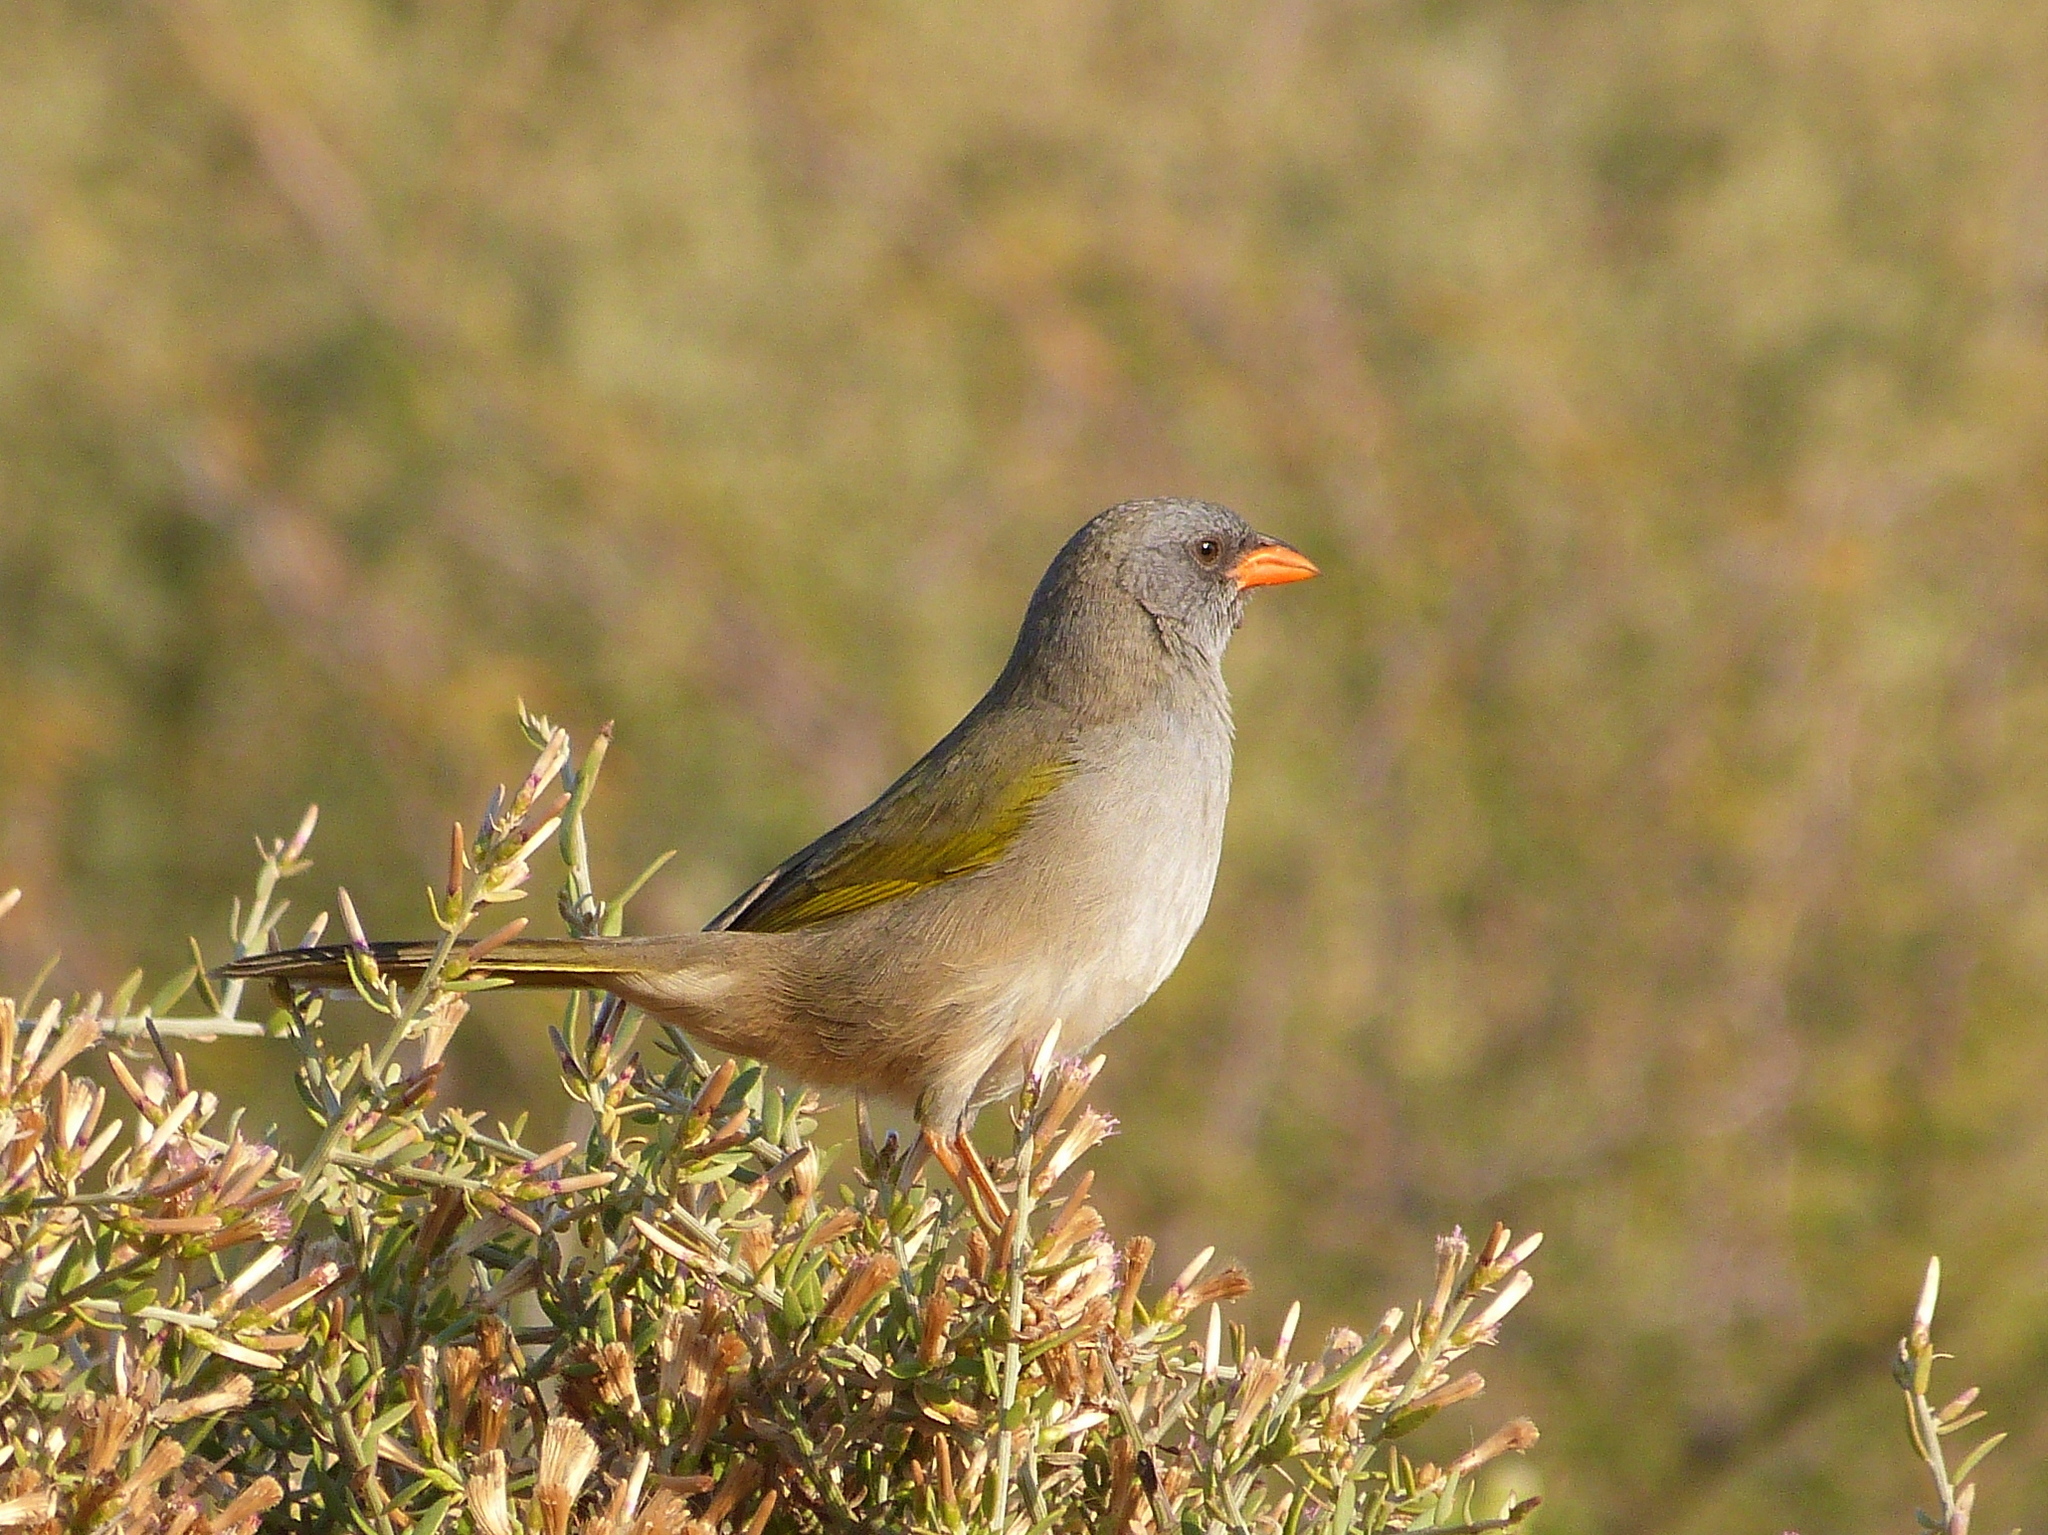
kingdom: Animalia
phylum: Chordata
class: Aves
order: Passeriformes
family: Thraupidae
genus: Embernagra
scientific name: Embernagra platensis
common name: Pampa finch
